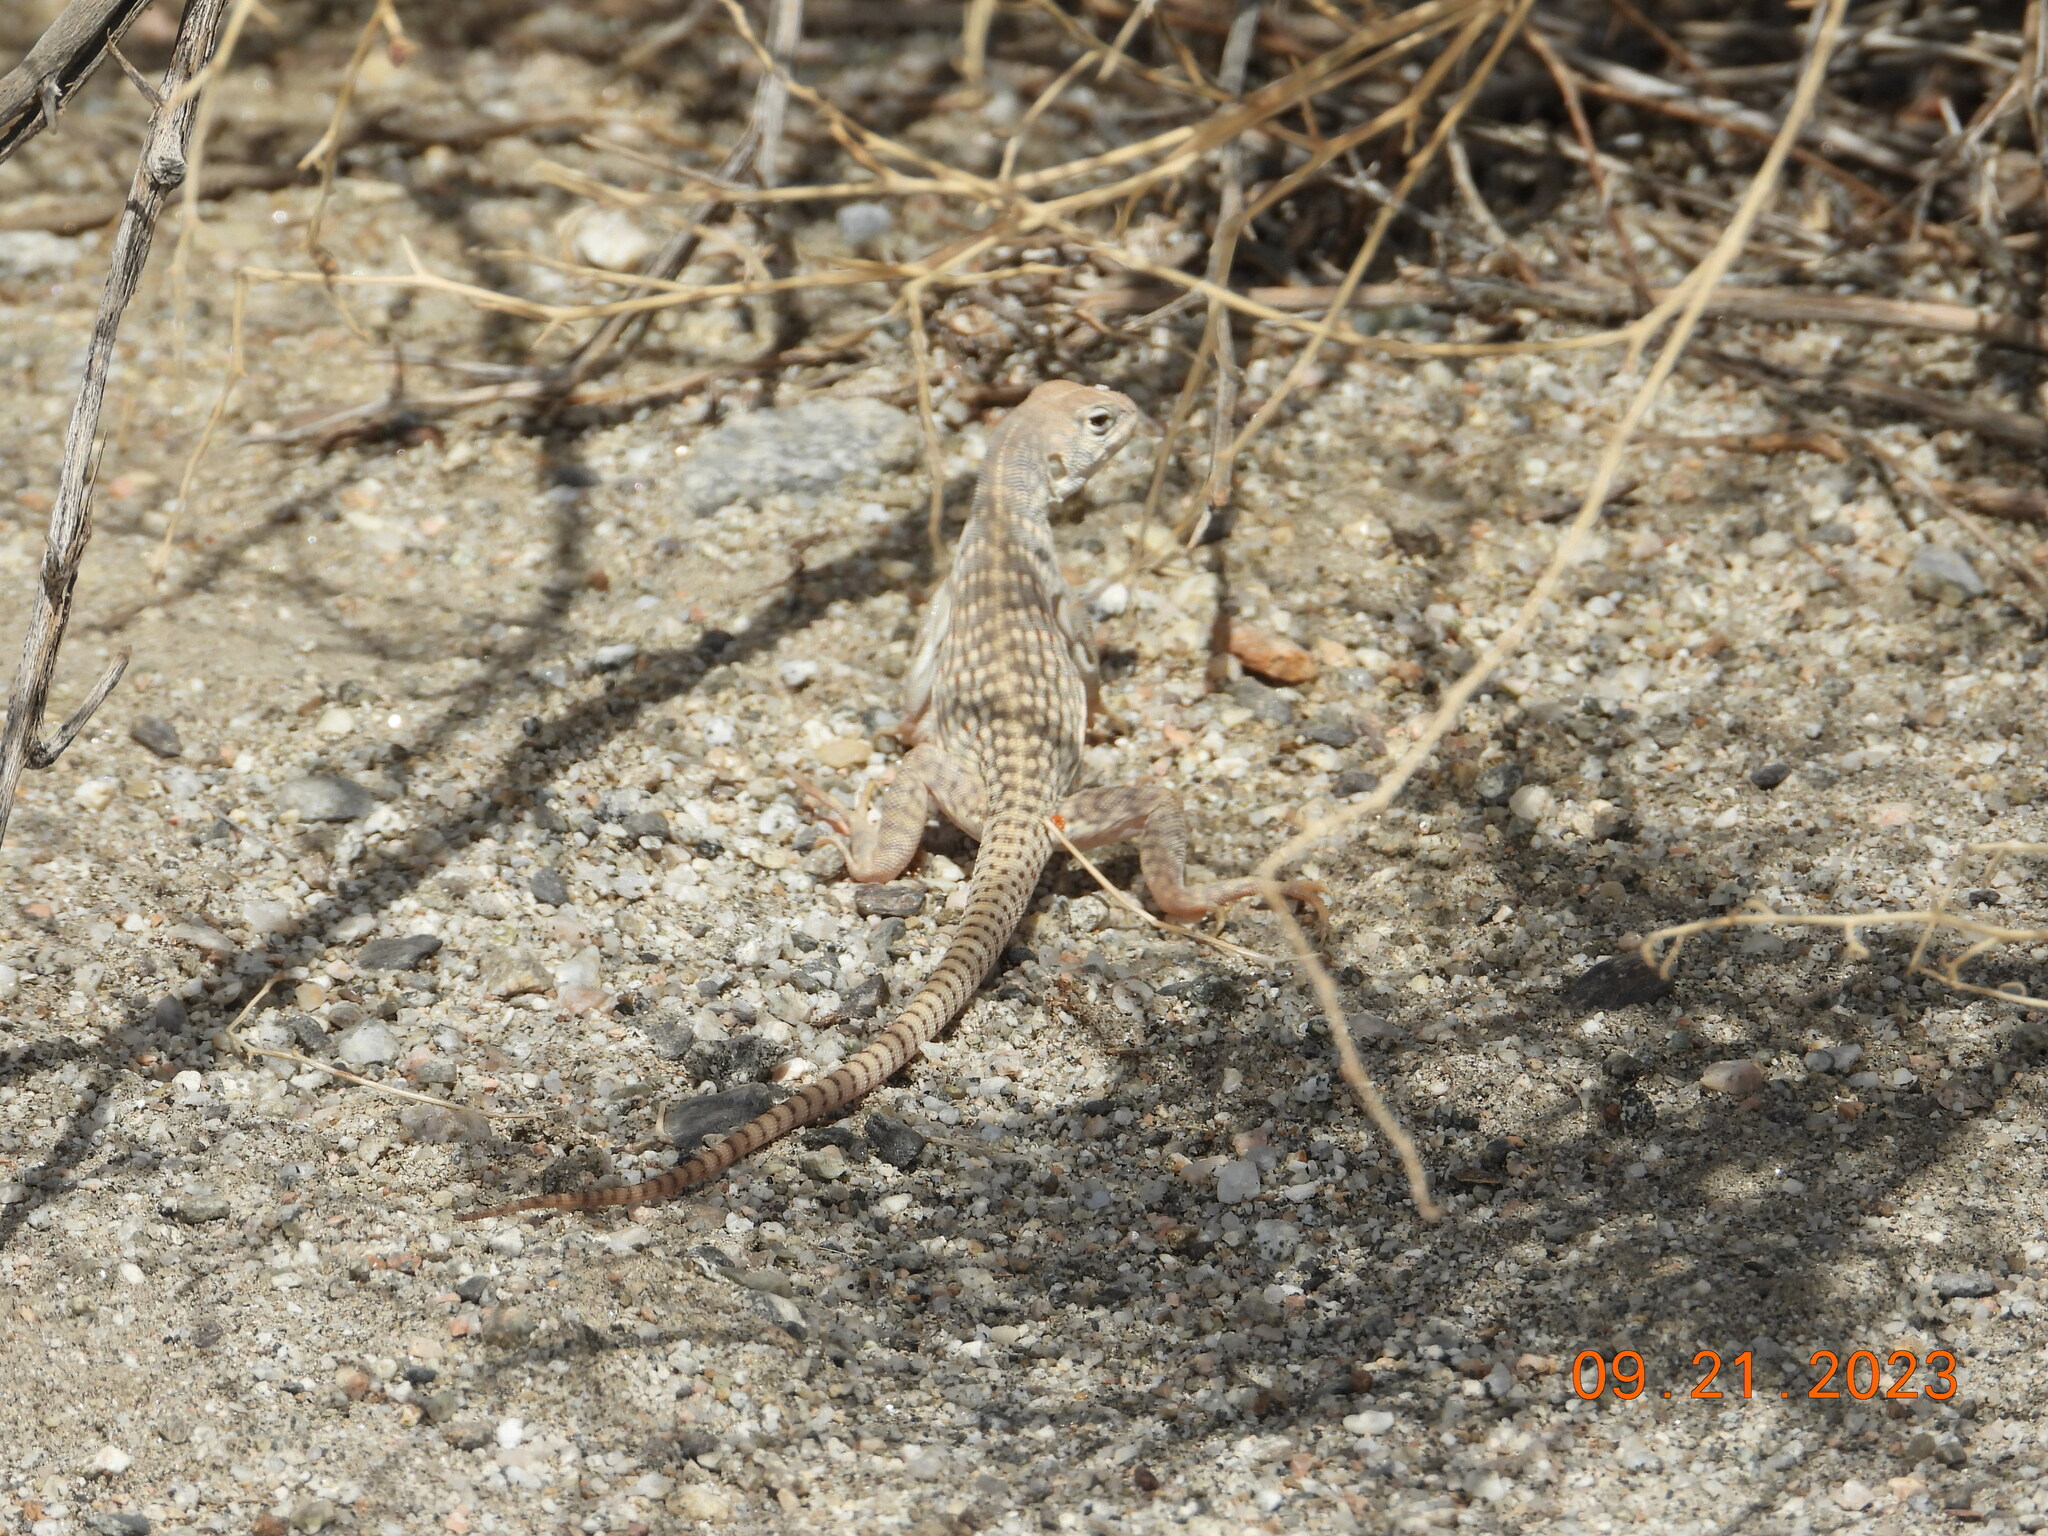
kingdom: Animalia
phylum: Chordata
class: Squamata
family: Iguanidae
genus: Dipsosaurus
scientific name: Dipsosaurus dorsalis
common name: Desert iguana
